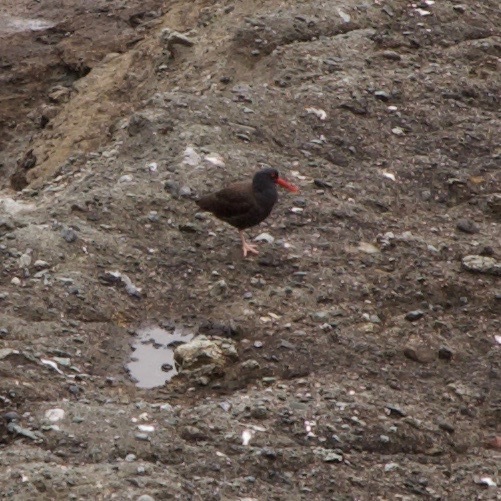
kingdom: Animalia
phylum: Chordata
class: Aves
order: Charadriiformes
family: Haematopodidae
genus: Haematopus
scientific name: Haematopus bachmani
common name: Black oystercatcher
